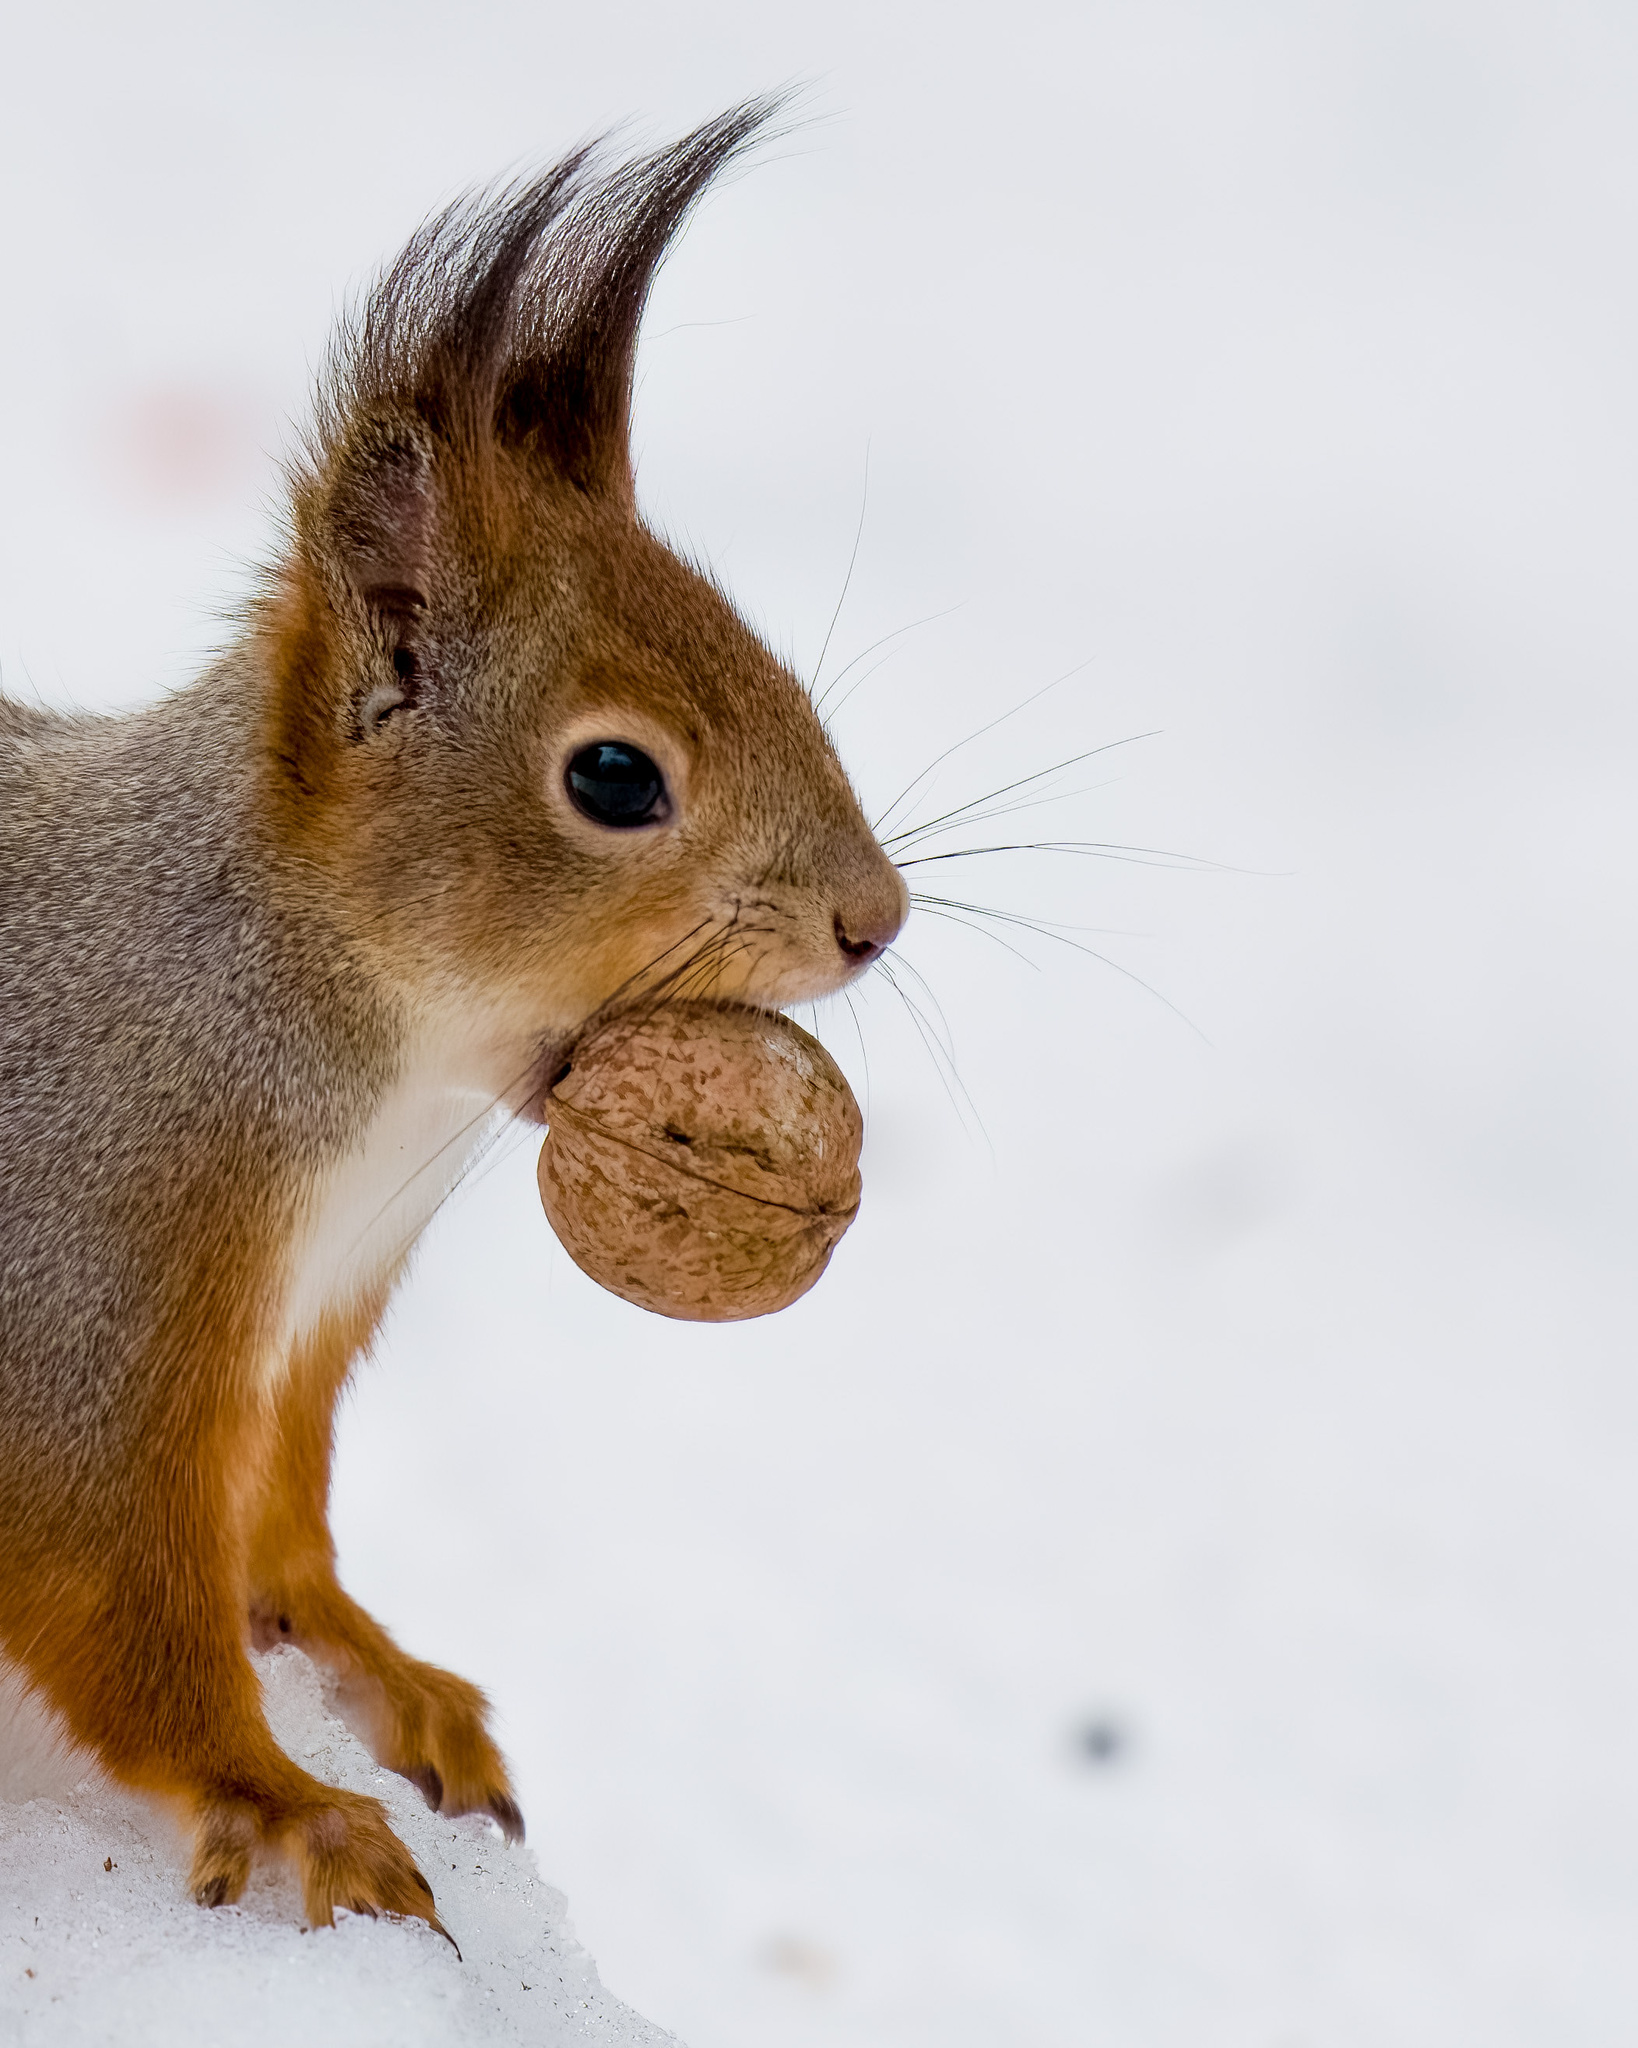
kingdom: Animalia
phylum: Chordata
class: Mammalia
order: Rodentia
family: Sciuridae
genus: Sciurus
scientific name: Sciurus vulgaris
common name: Eurasian red squirrel
